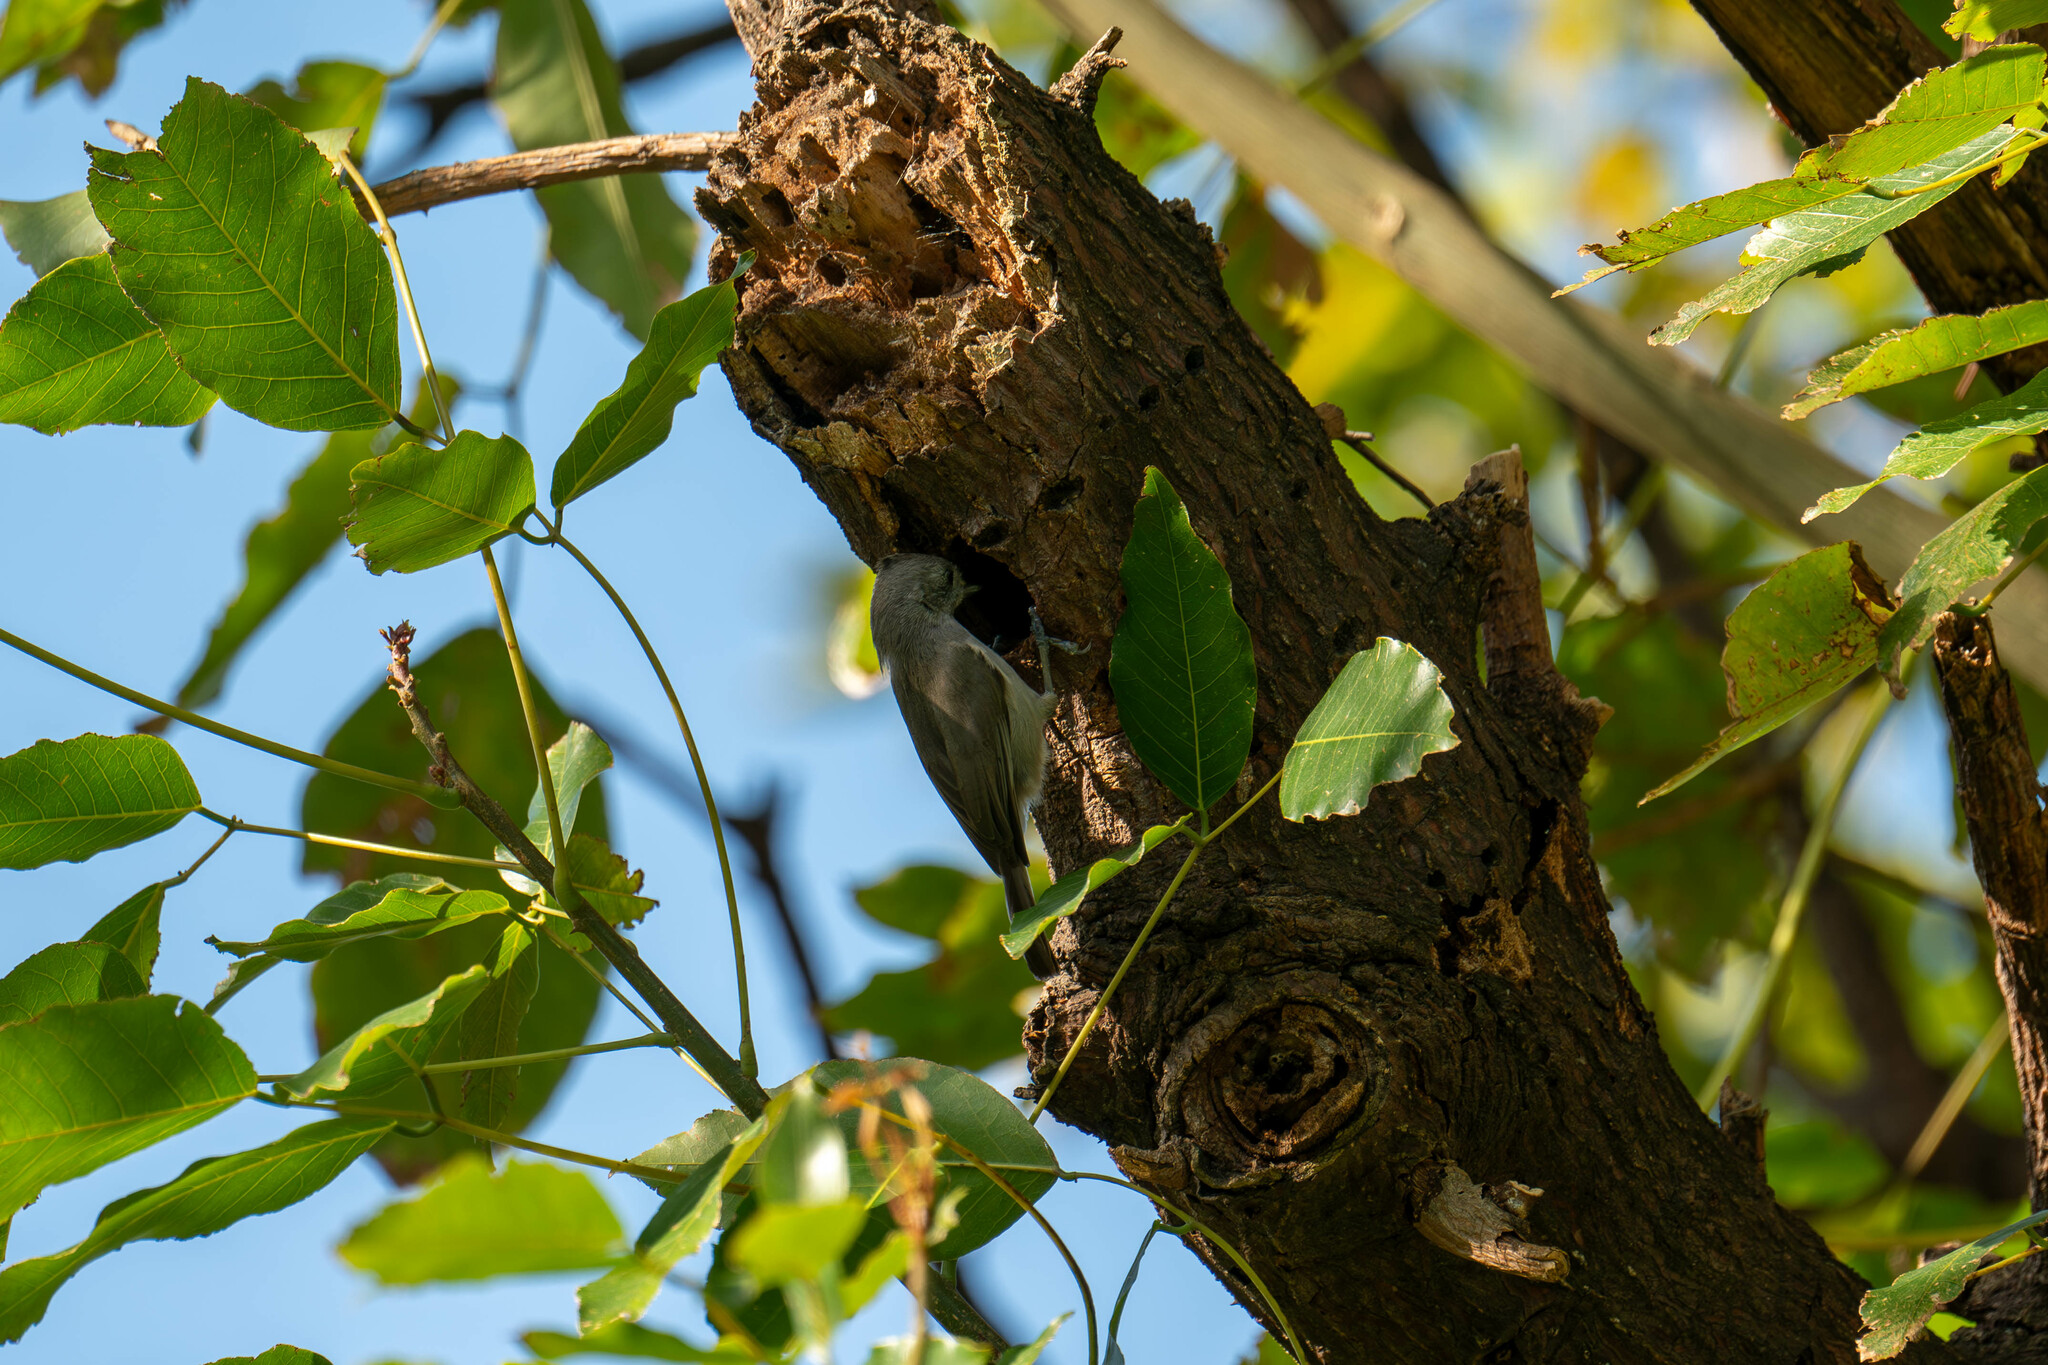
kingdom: Animalia
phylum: Chordata
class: Aves
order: Passeriformes
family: Paridae
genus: Baeolophus
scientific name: Baeolophus inornatus
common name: Oak titmouse
